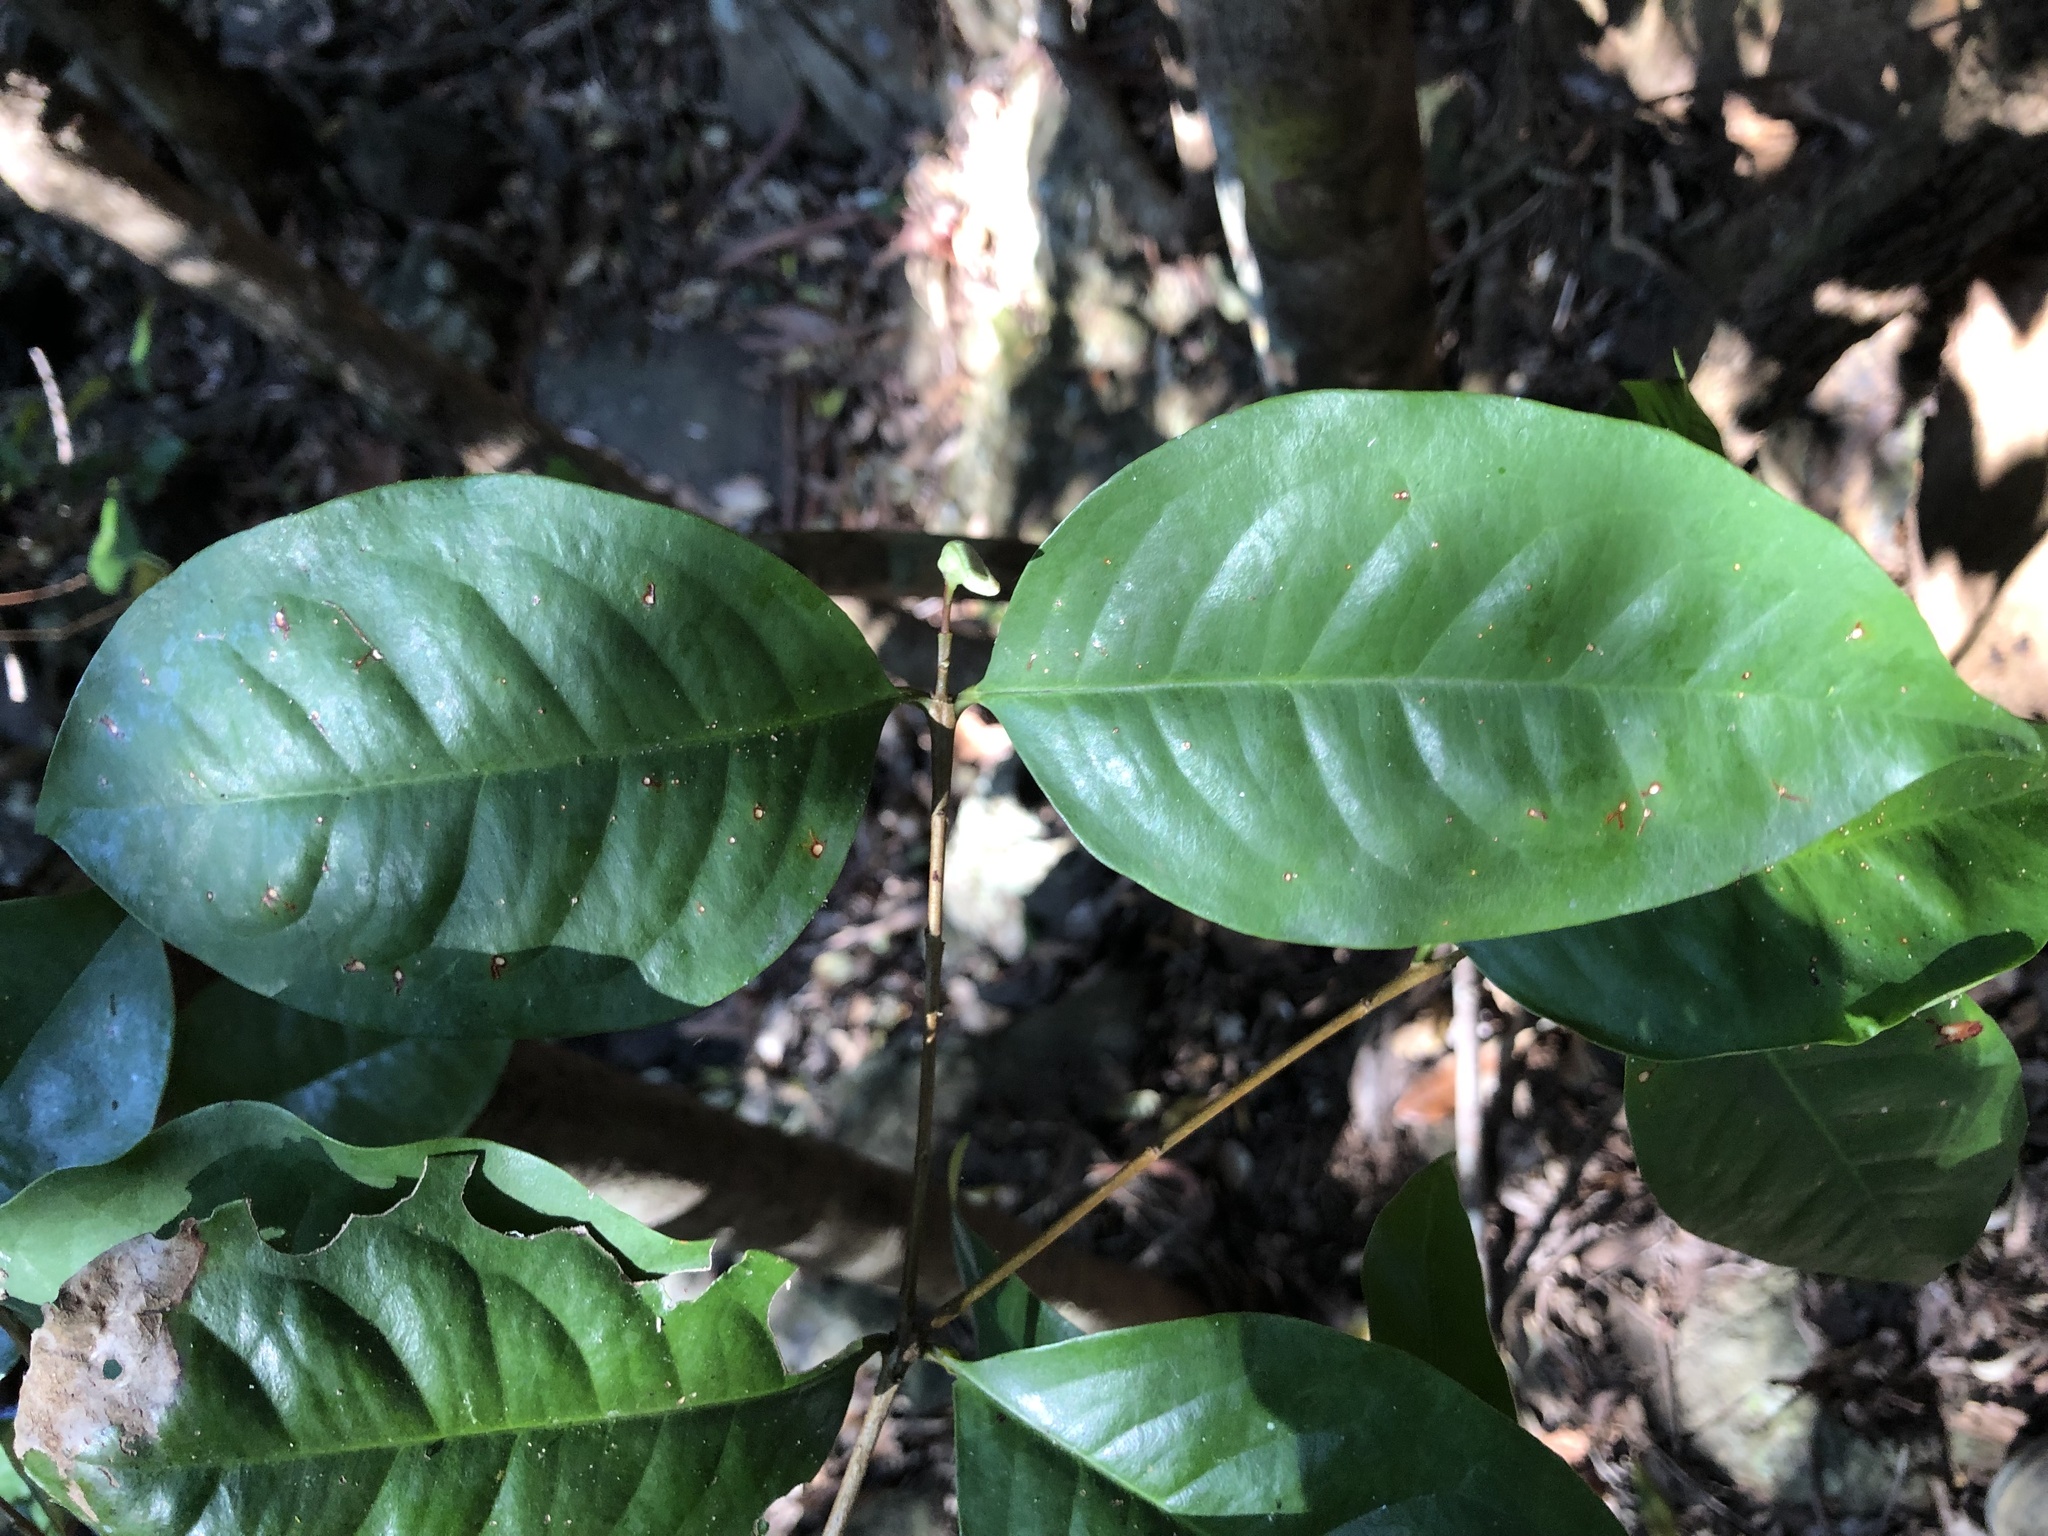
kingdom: Plantae
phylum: Tracheophyta
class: Magnoliopsida
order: Myrtales
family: Myrtaceae
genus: Syzygium
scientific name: Syzygium hodgkinsoniae
